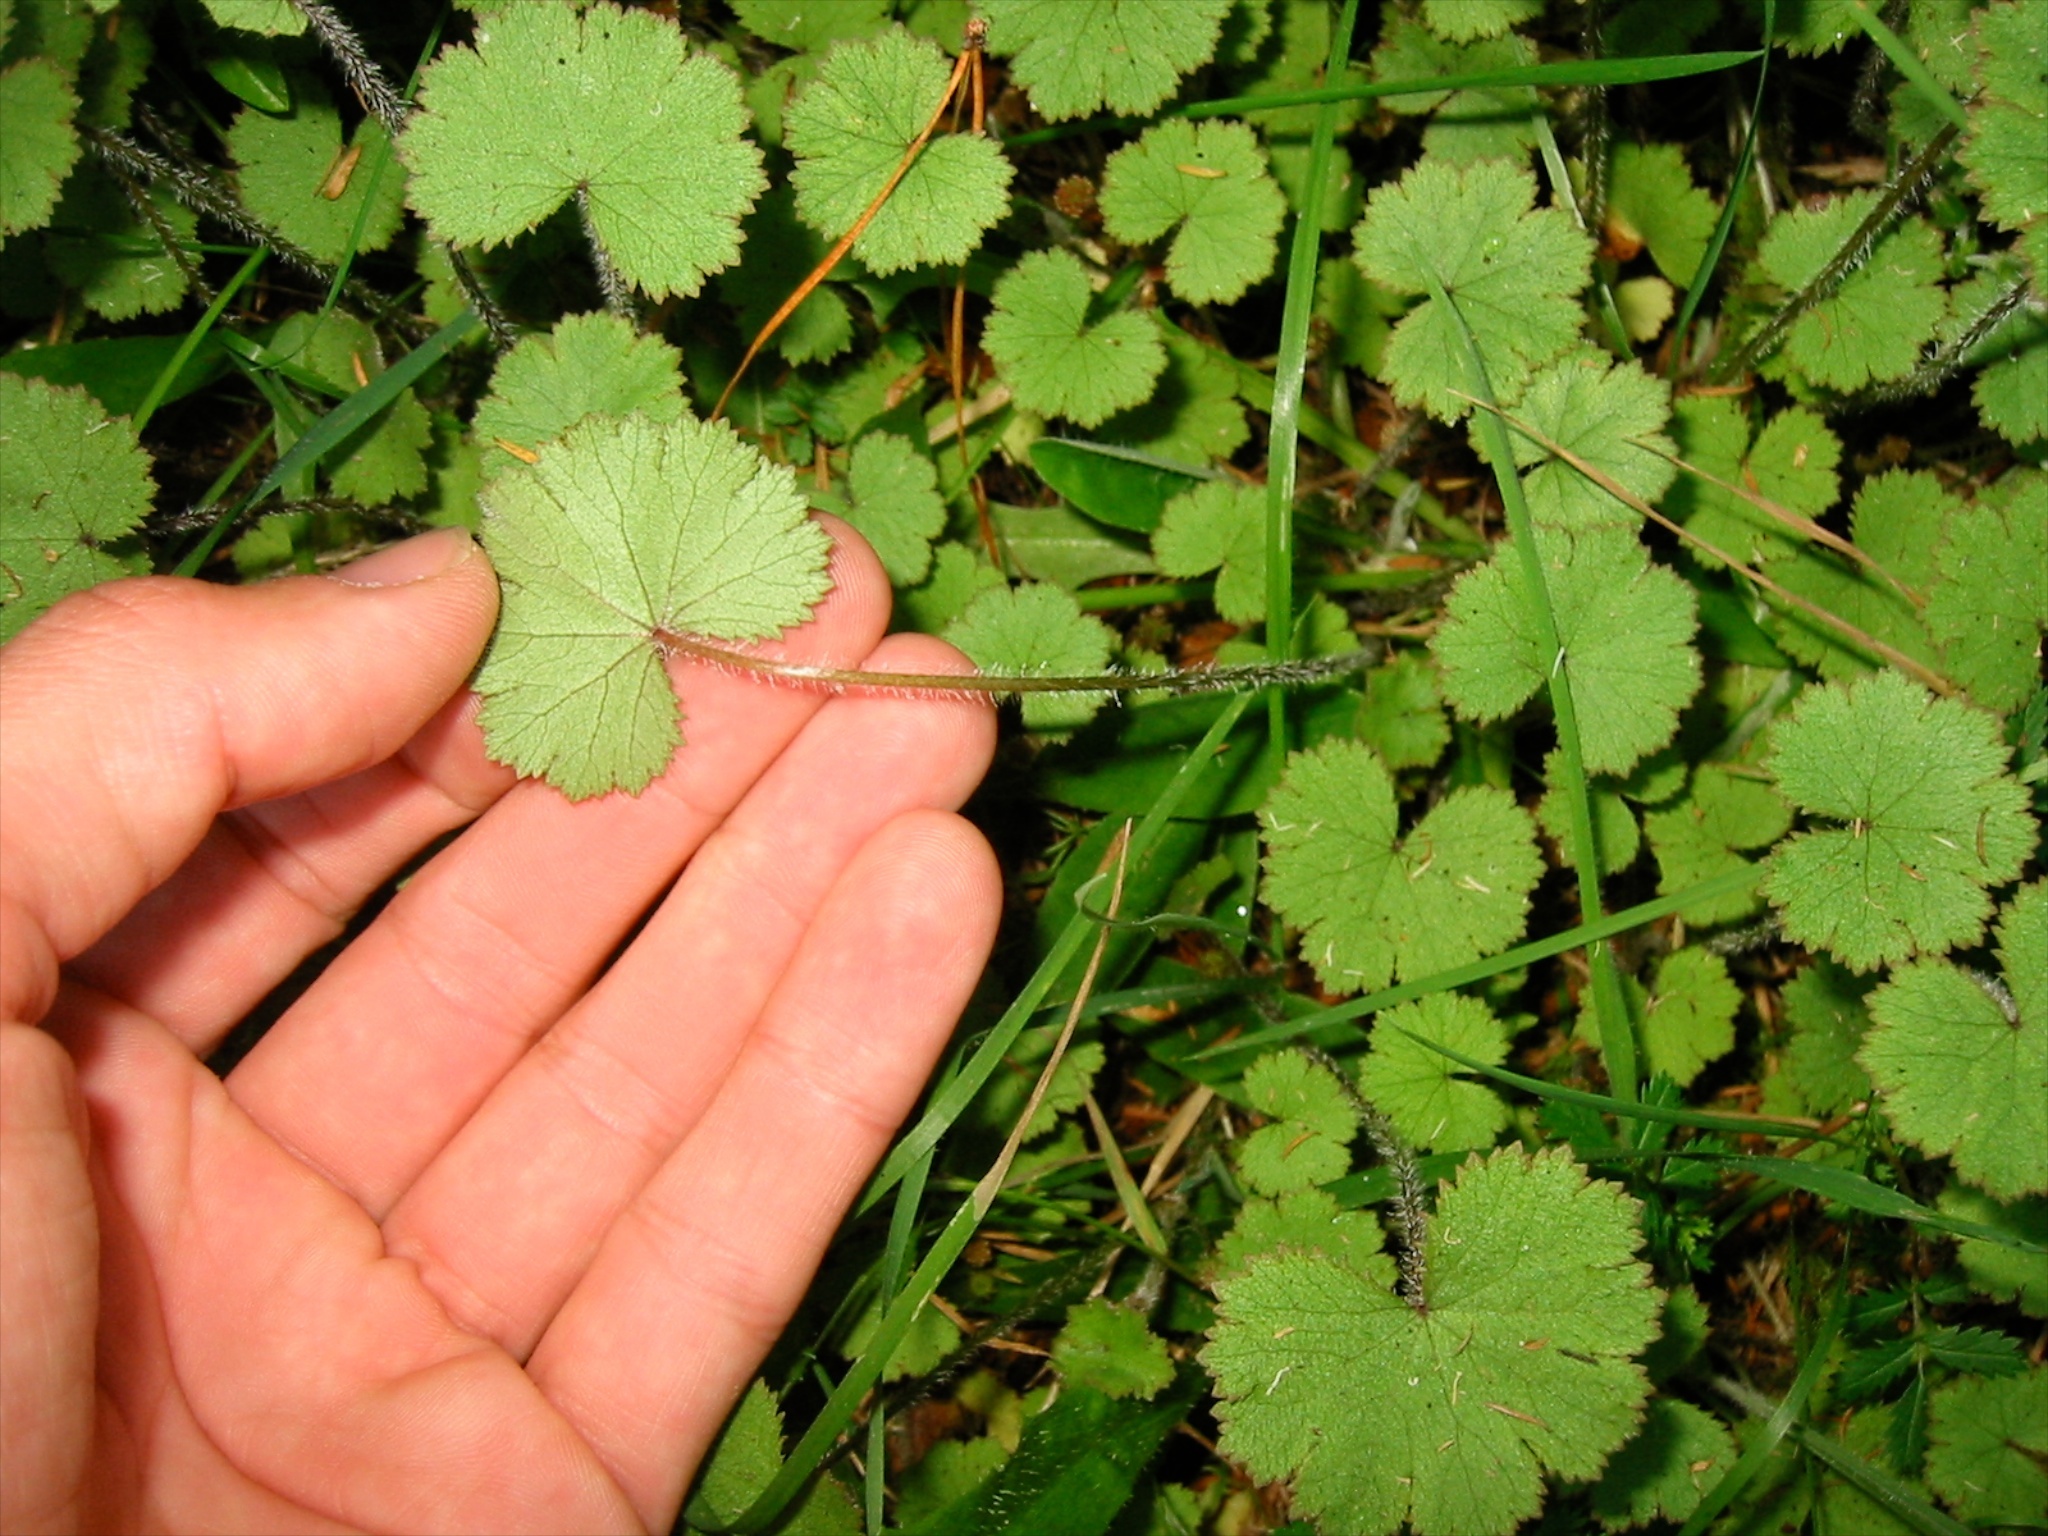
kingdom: Plantae
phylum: Tracheophyta
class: Magnoliopsida
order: Apiales
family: Araliaceae
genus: Hydrocotyle
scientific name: Hydrocotyle moschata
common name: Hairy pennywort
